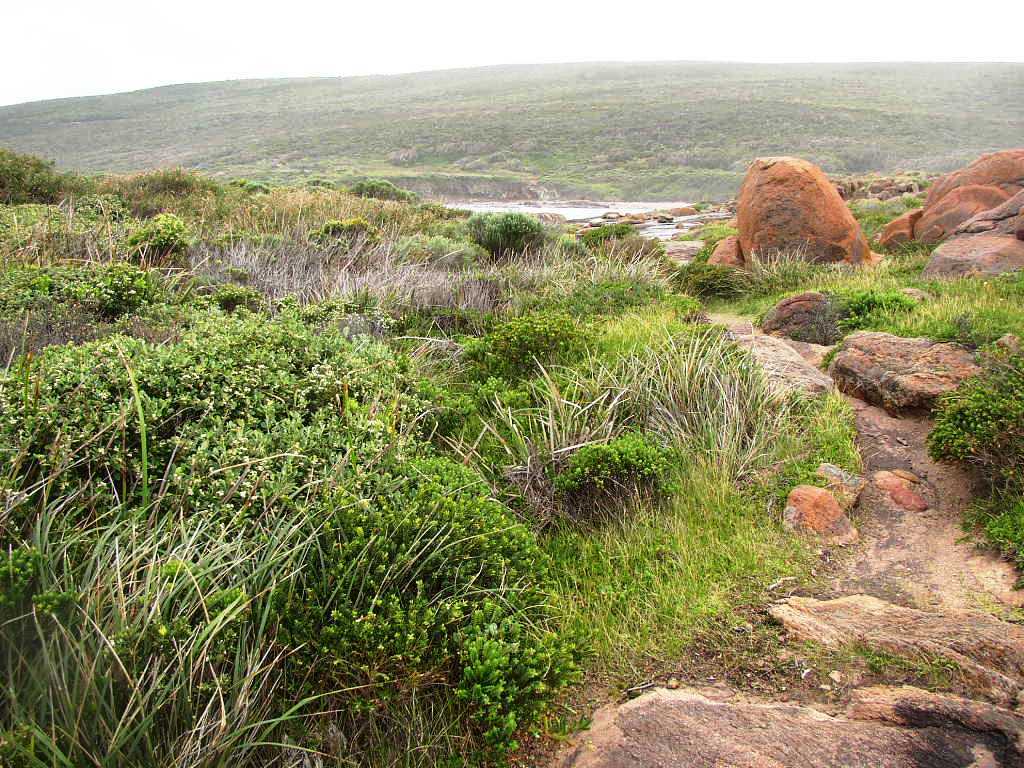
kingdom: Plantae
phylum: Tracheophyta
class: Magnoliopsida
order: Sapindales
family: Rutaceae
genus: Boronia
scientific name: Boronia alata
